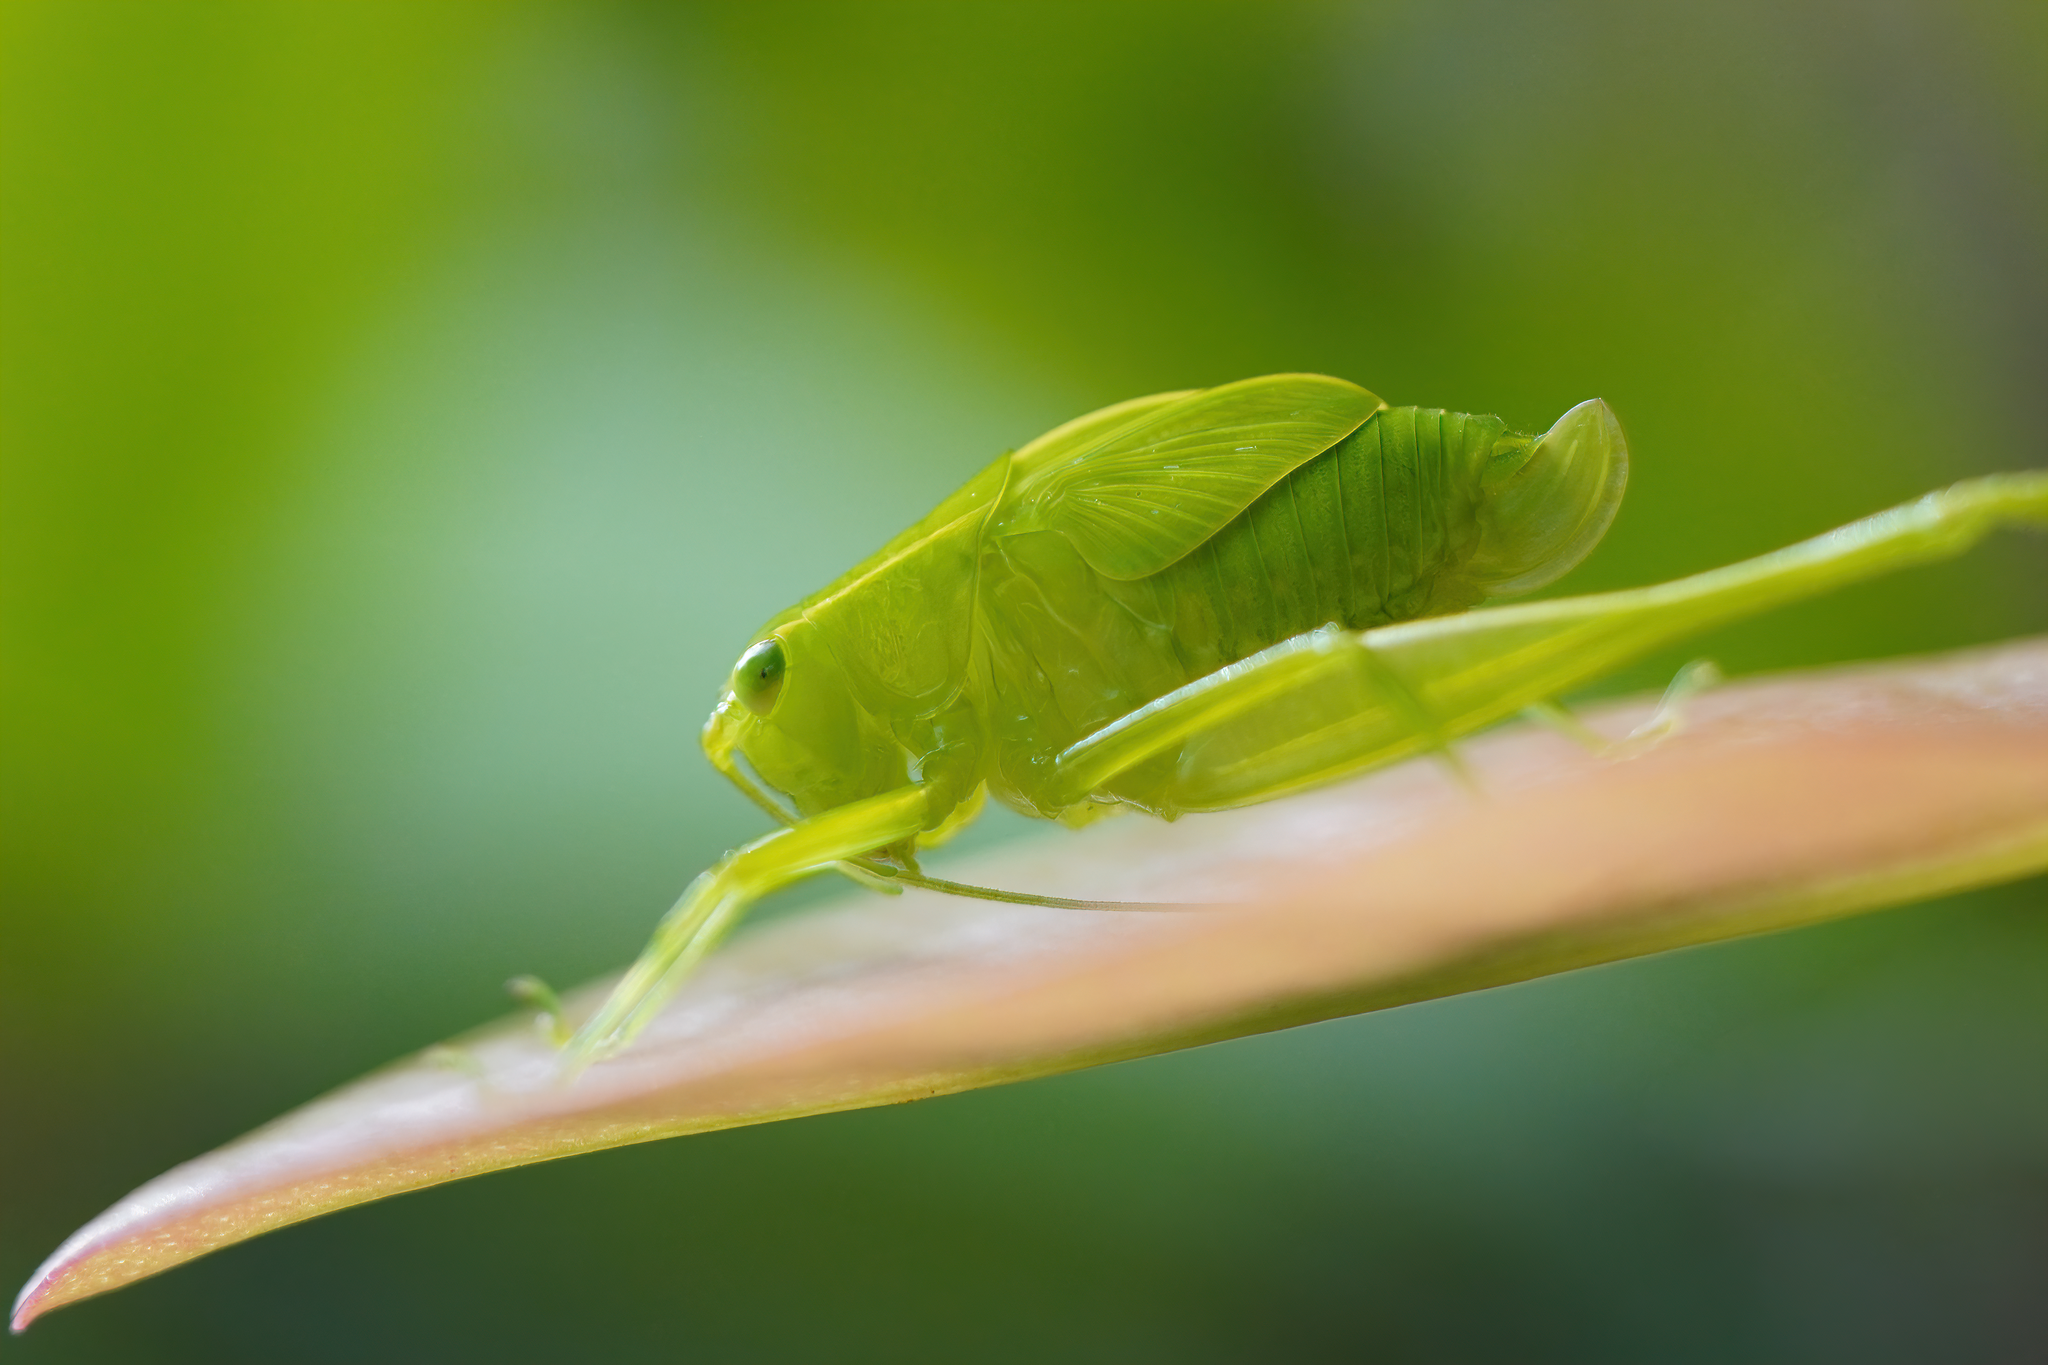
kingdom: Animalia
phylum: Arthropoda
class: Insecta
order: Orthoptera
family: Tettigoniidae
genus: Turpilia
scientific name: Turpilia rostrata
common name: Narrow-beaked katydid
